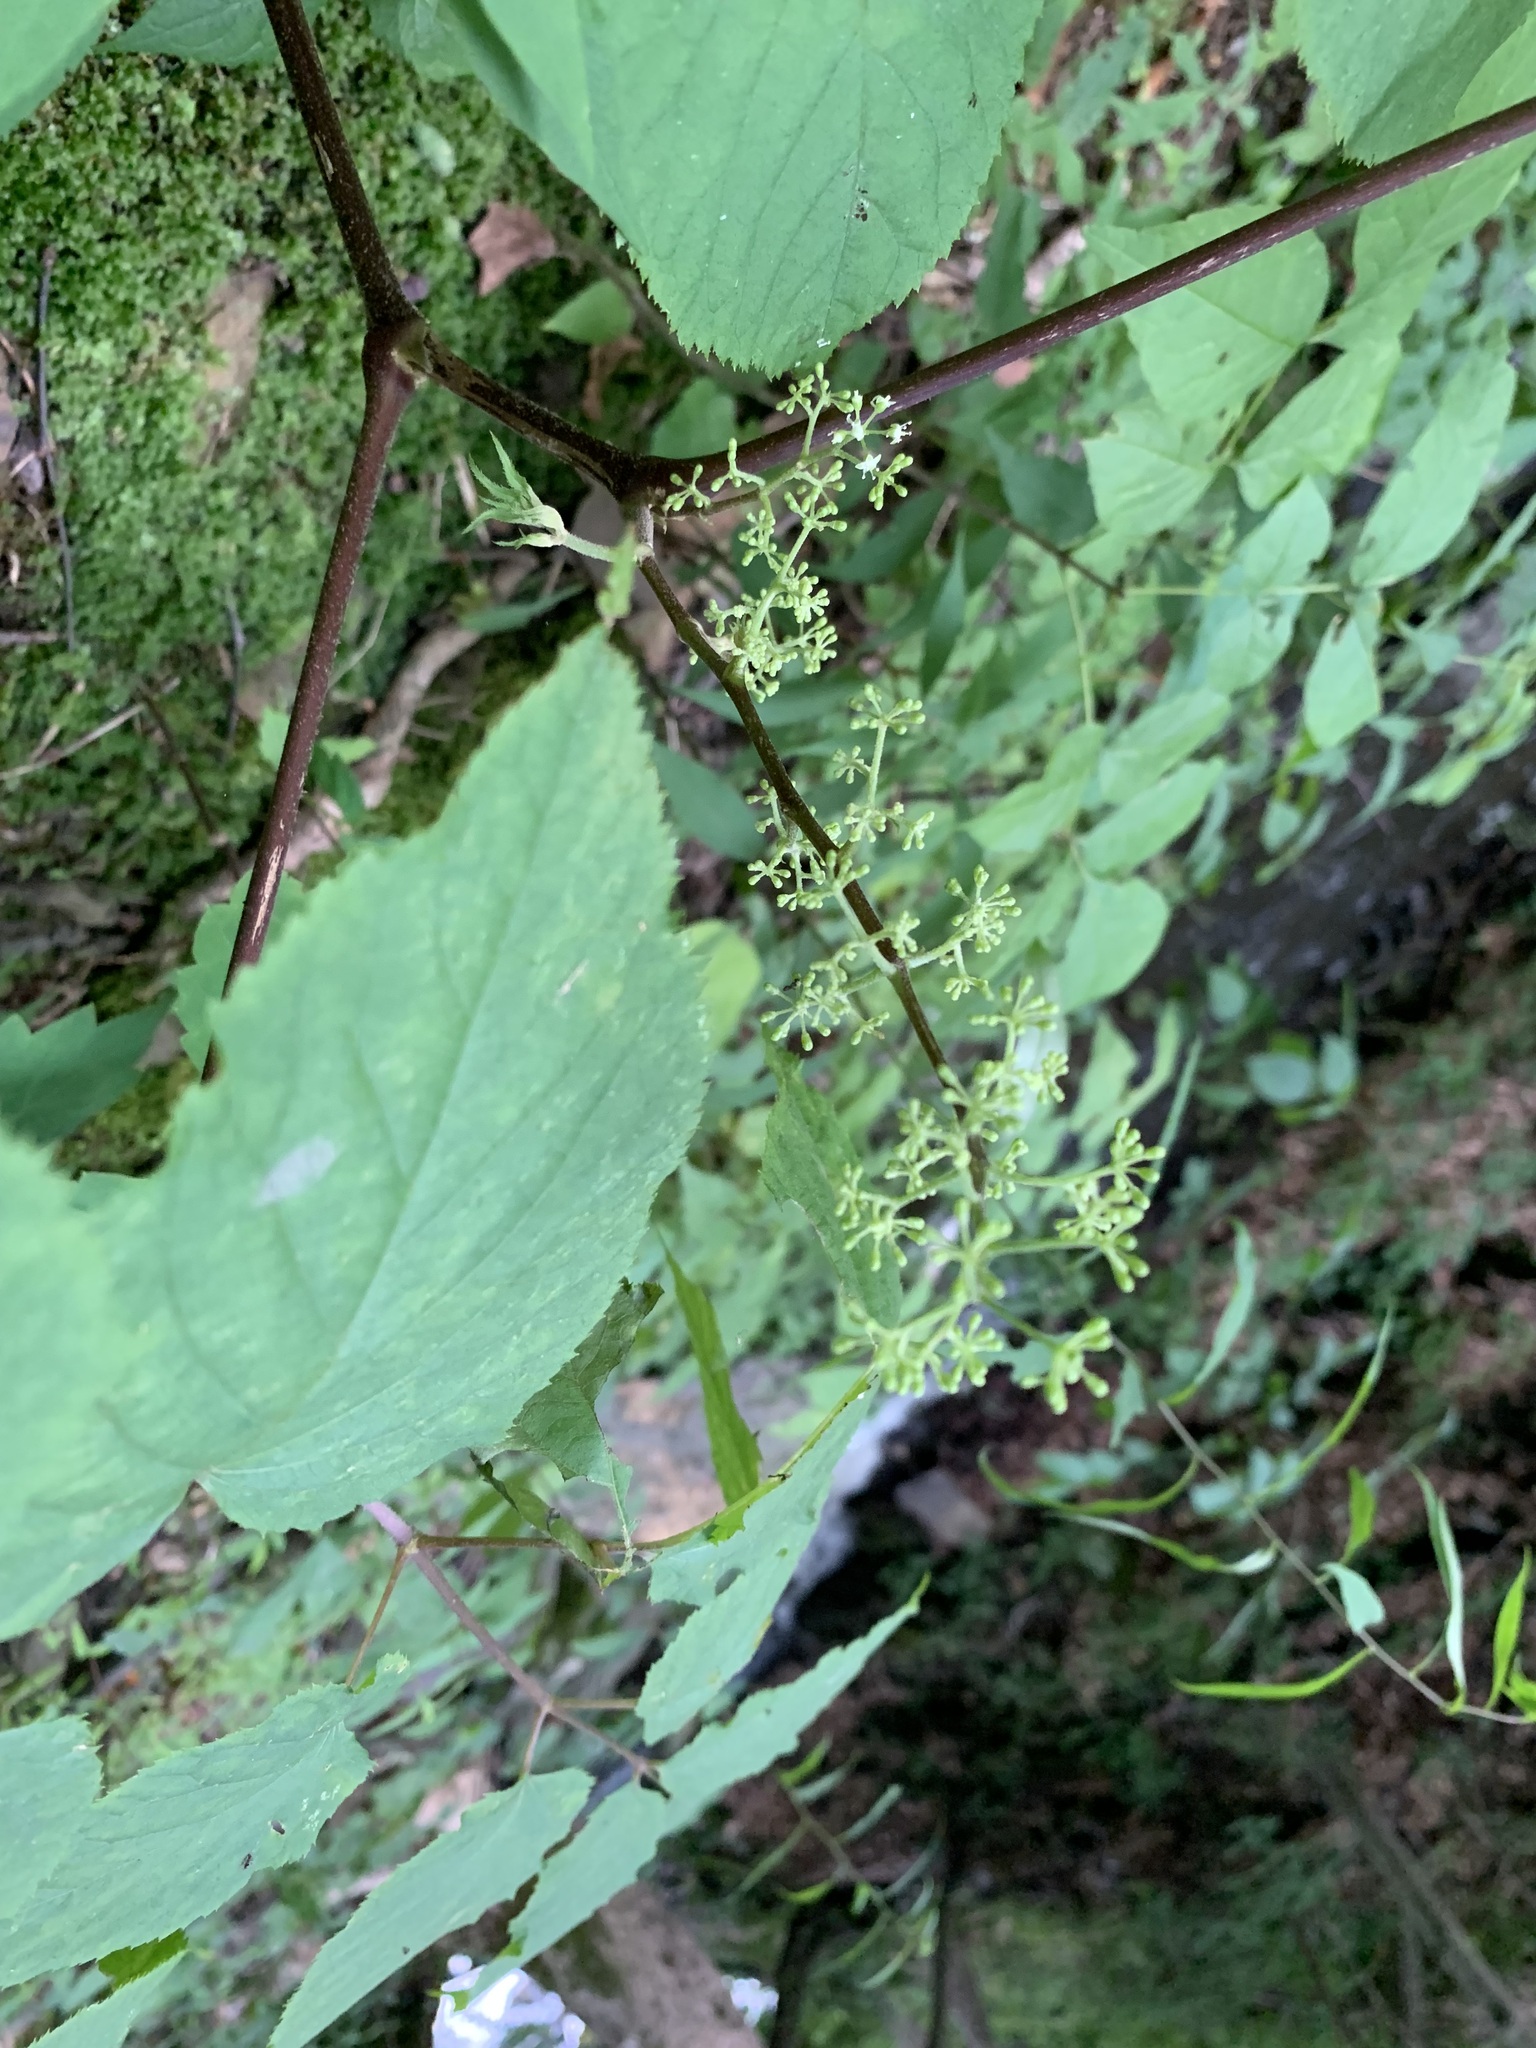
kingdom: Plantae
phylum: Tracheophyta
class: Magnoliopsida
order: Apiales
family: Araliaceae
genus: Aralia
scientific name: Aralia racemosa
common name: American-spikenard
